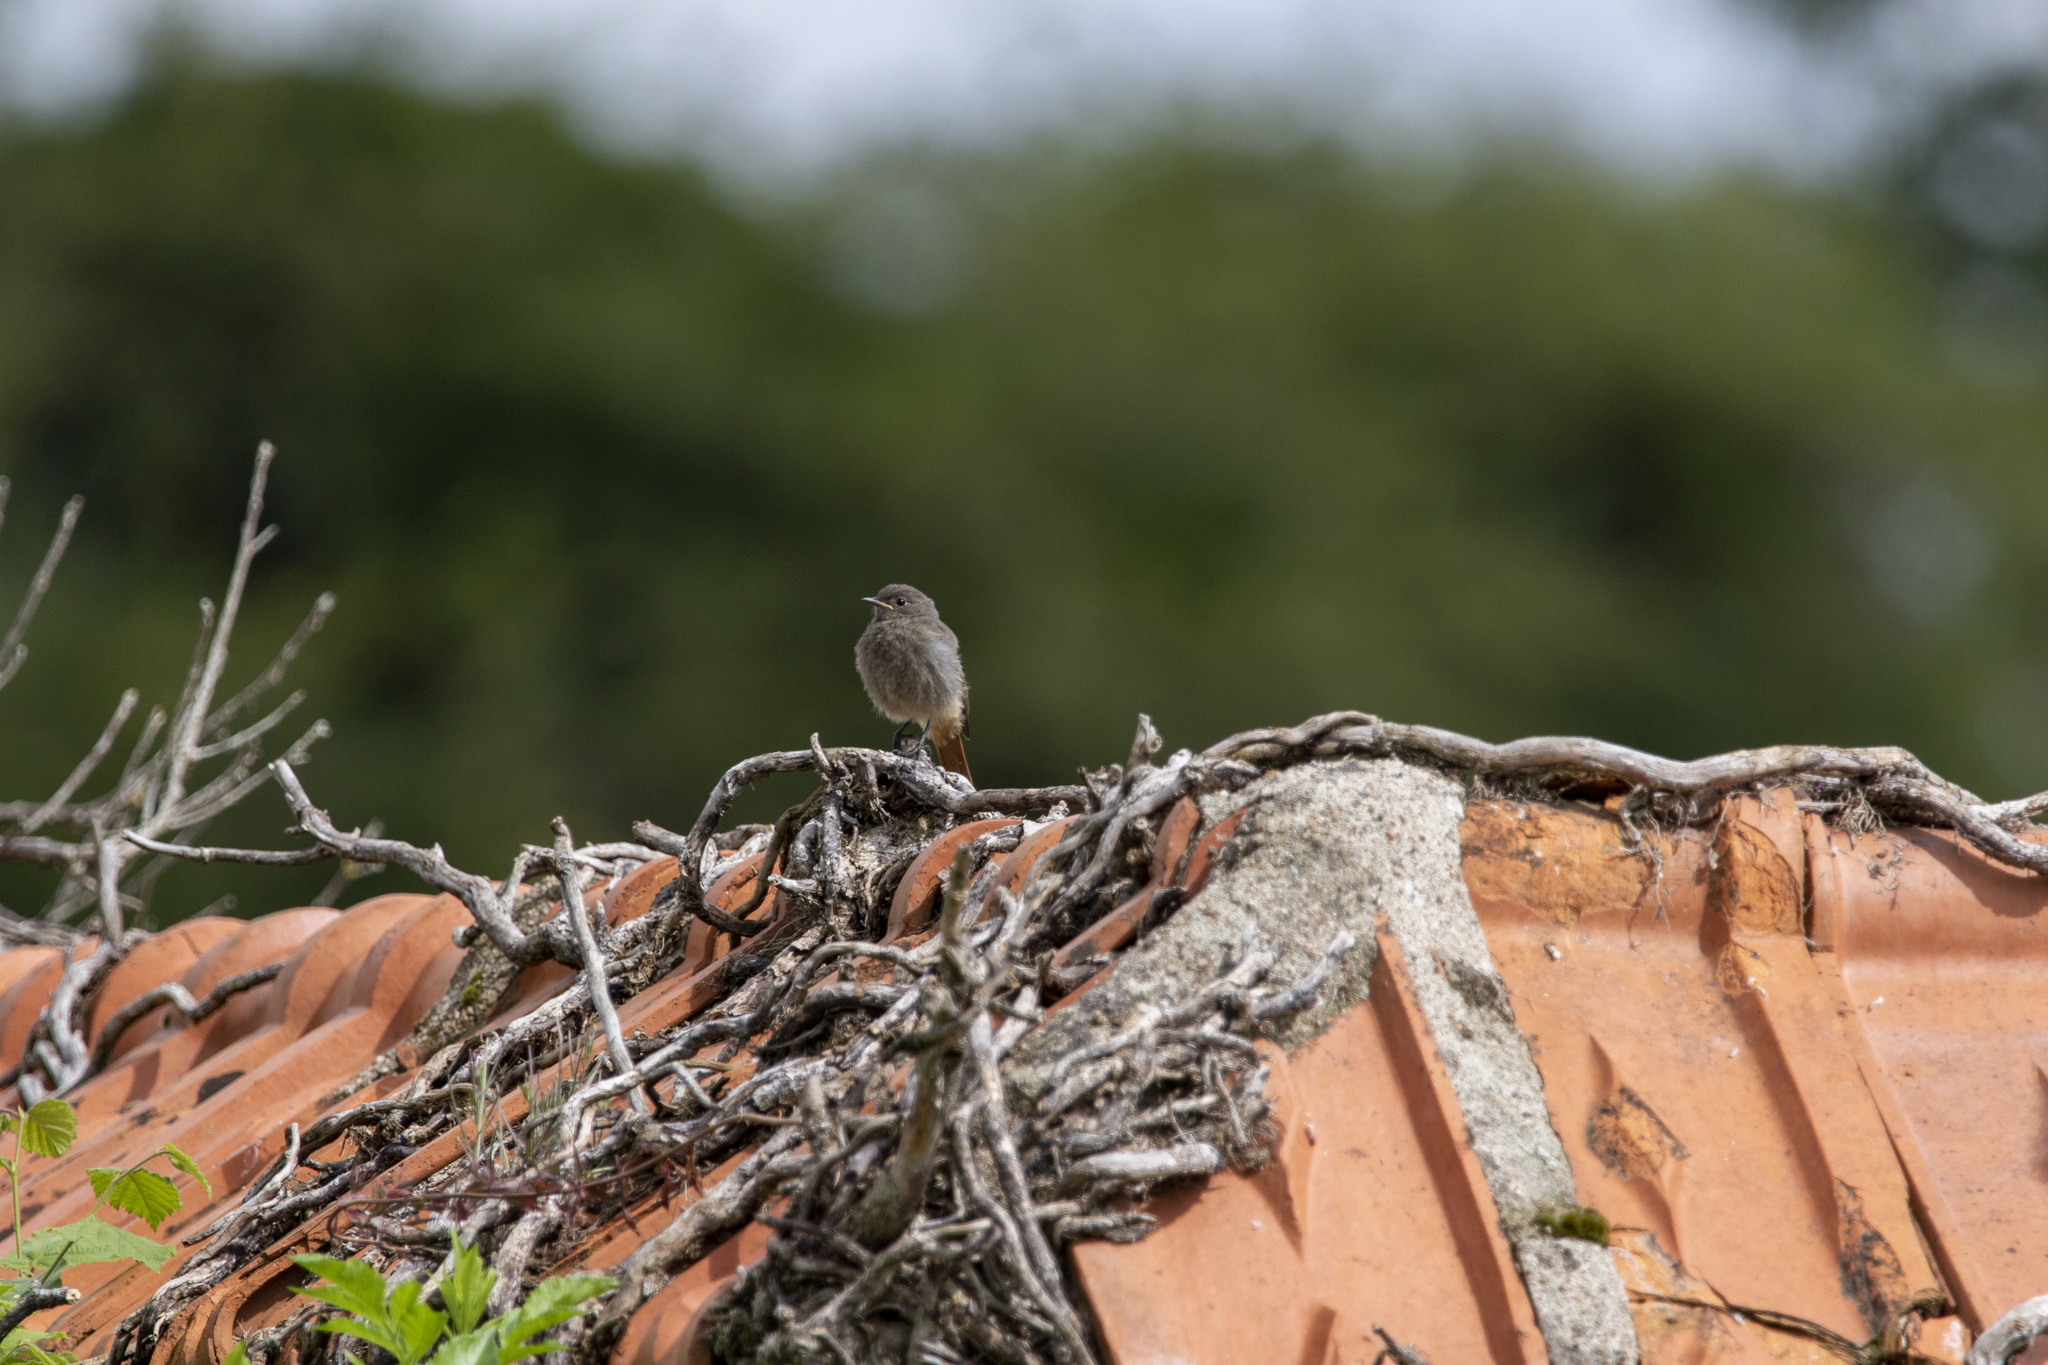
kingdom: Animalia
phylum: Chordata
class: Aves
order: Passeriformes
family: Muscicapidae
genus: Phoenicurus
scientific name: Phoenicurus ochruros
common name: Black redstart
